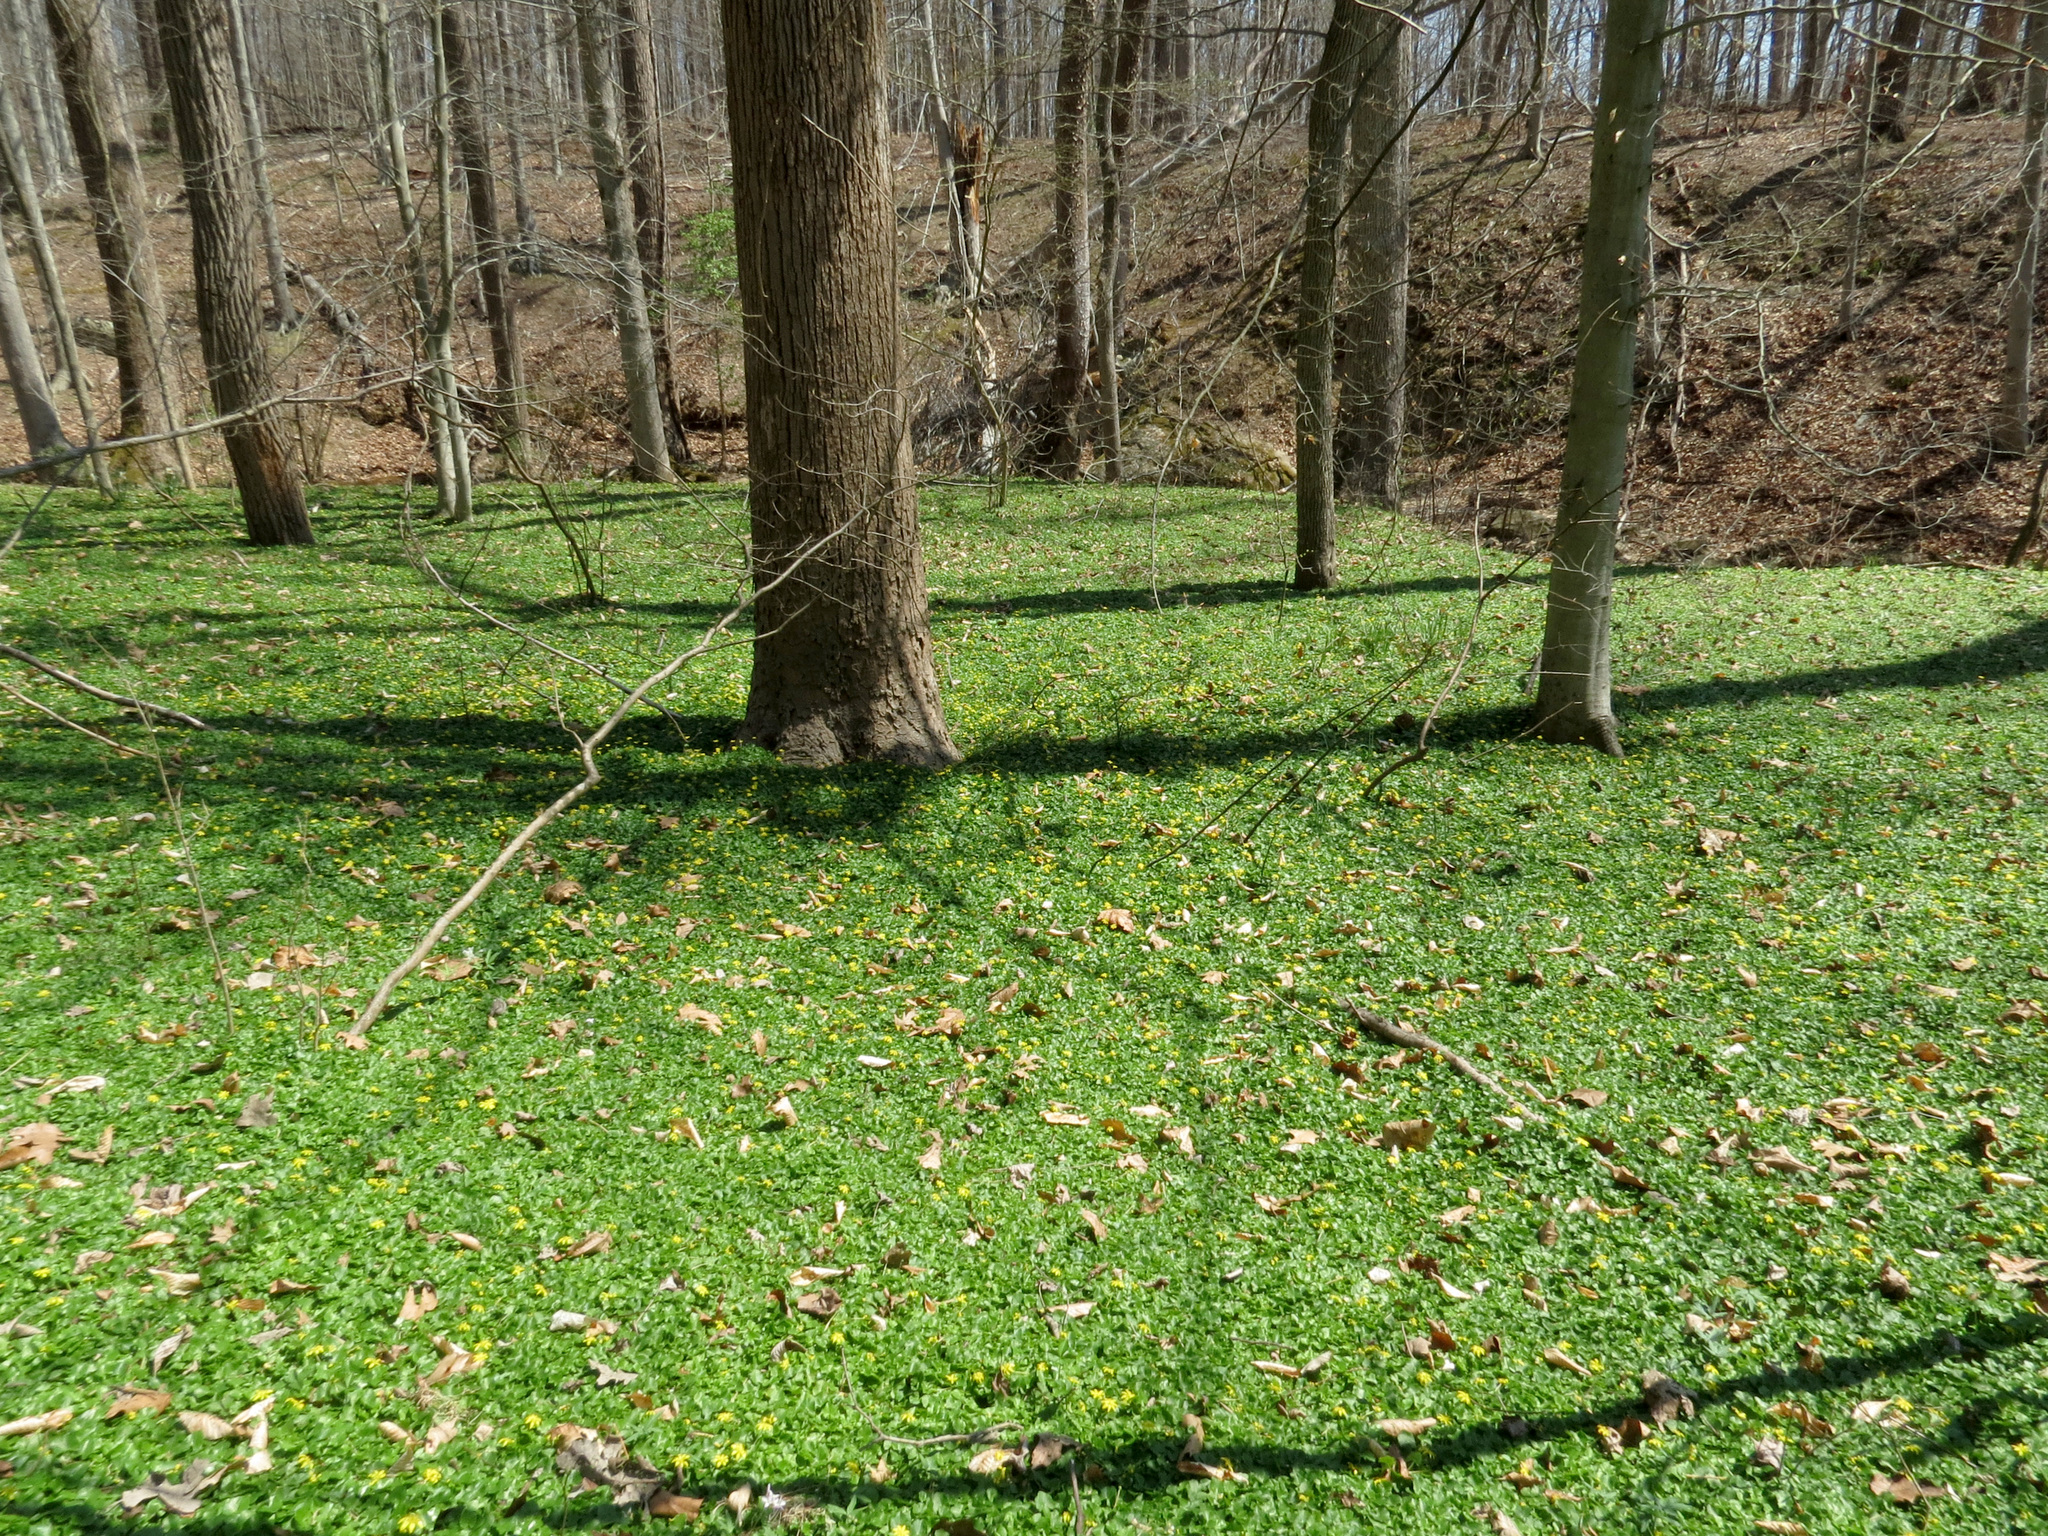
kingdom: Plantae
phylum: Tracheophyta
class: Magnoliopsida
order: Ranunculales
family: Ranunculaceae
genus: Ficaria
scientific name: Ficaria verna
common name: Lesser celandine
